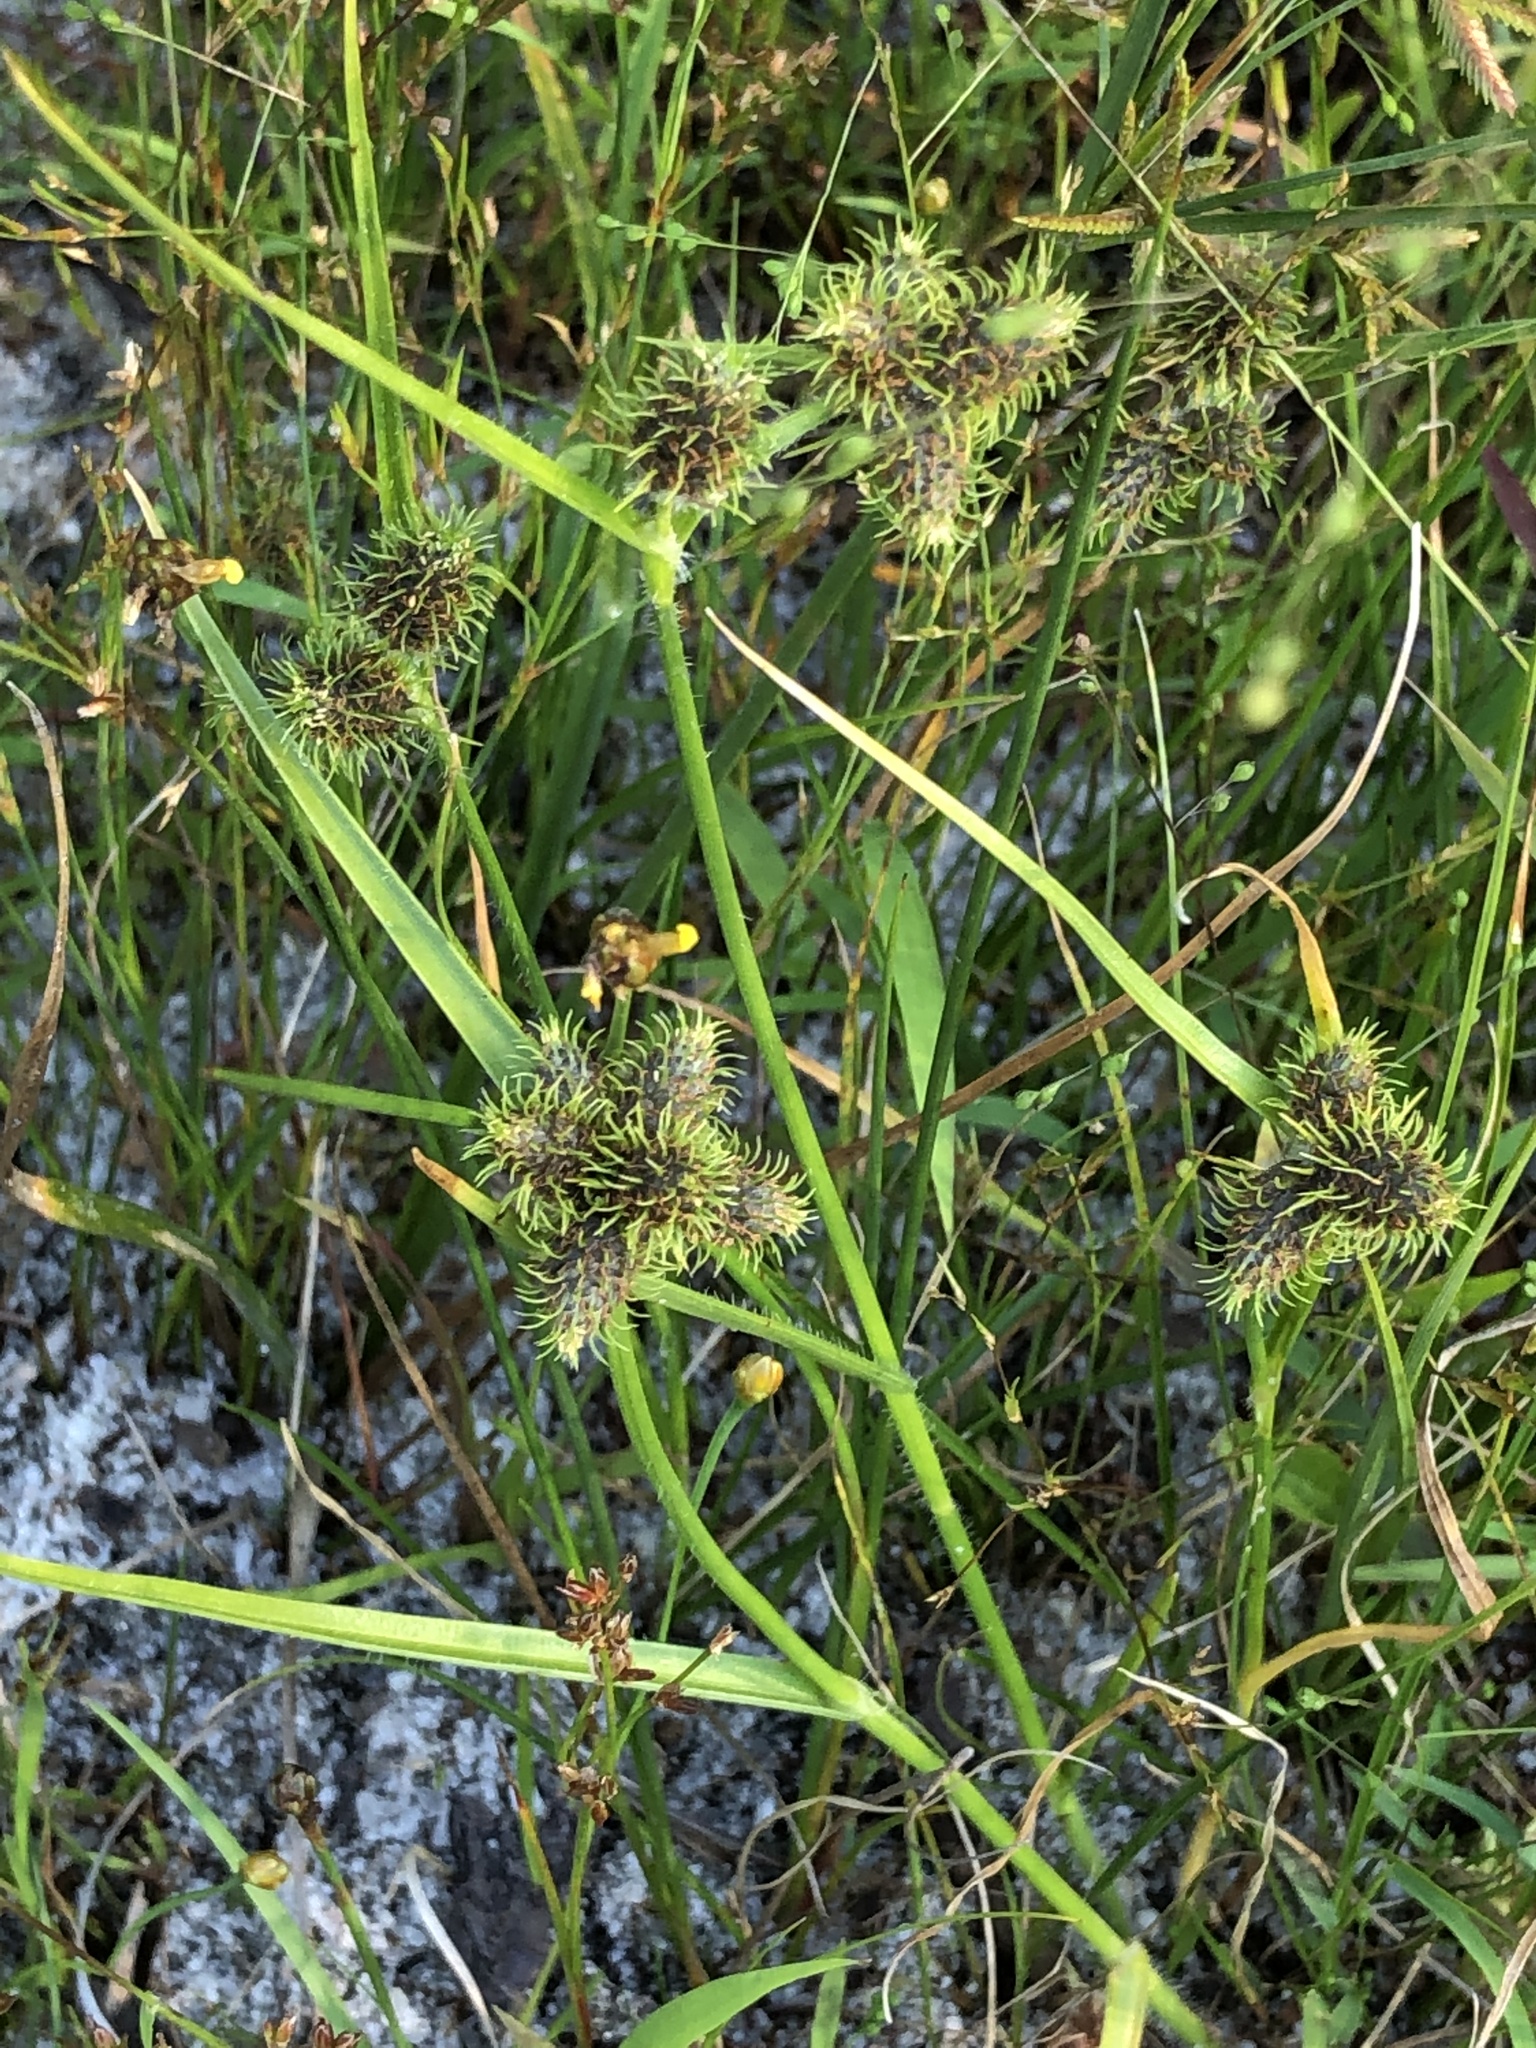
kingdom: Plantae
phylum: Tracheophyta
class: Liliopsida
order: Poales
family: Cyperaceae
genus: Fuirena
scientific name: Fuirena pumila
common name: Dwarf umbrella sedge
